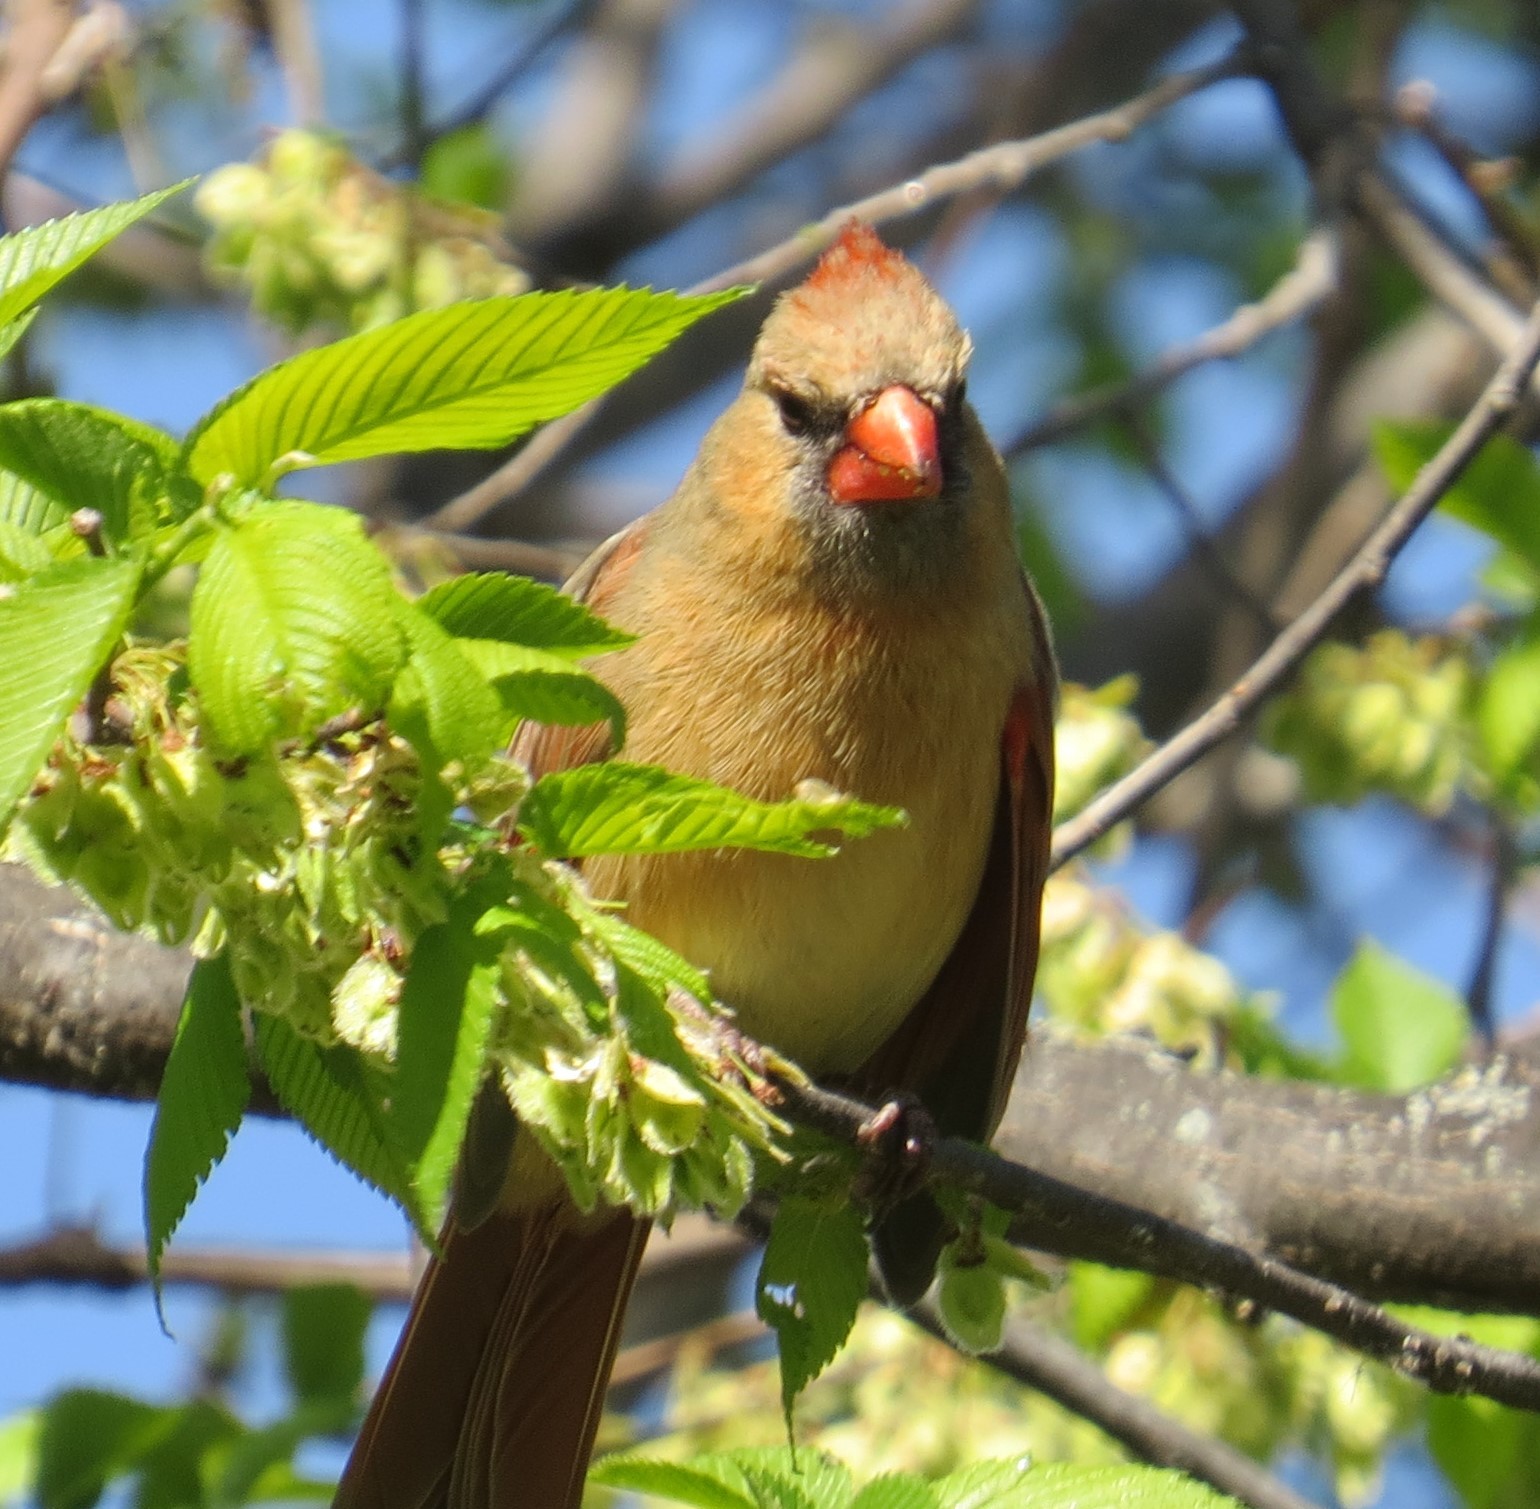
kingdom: Animalia
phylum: Chordata
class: Aves
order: Passeriformes
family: Cardinalidae
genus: Cardinalis
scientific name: Cardinalis cardinalis
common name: Northern cardinal
